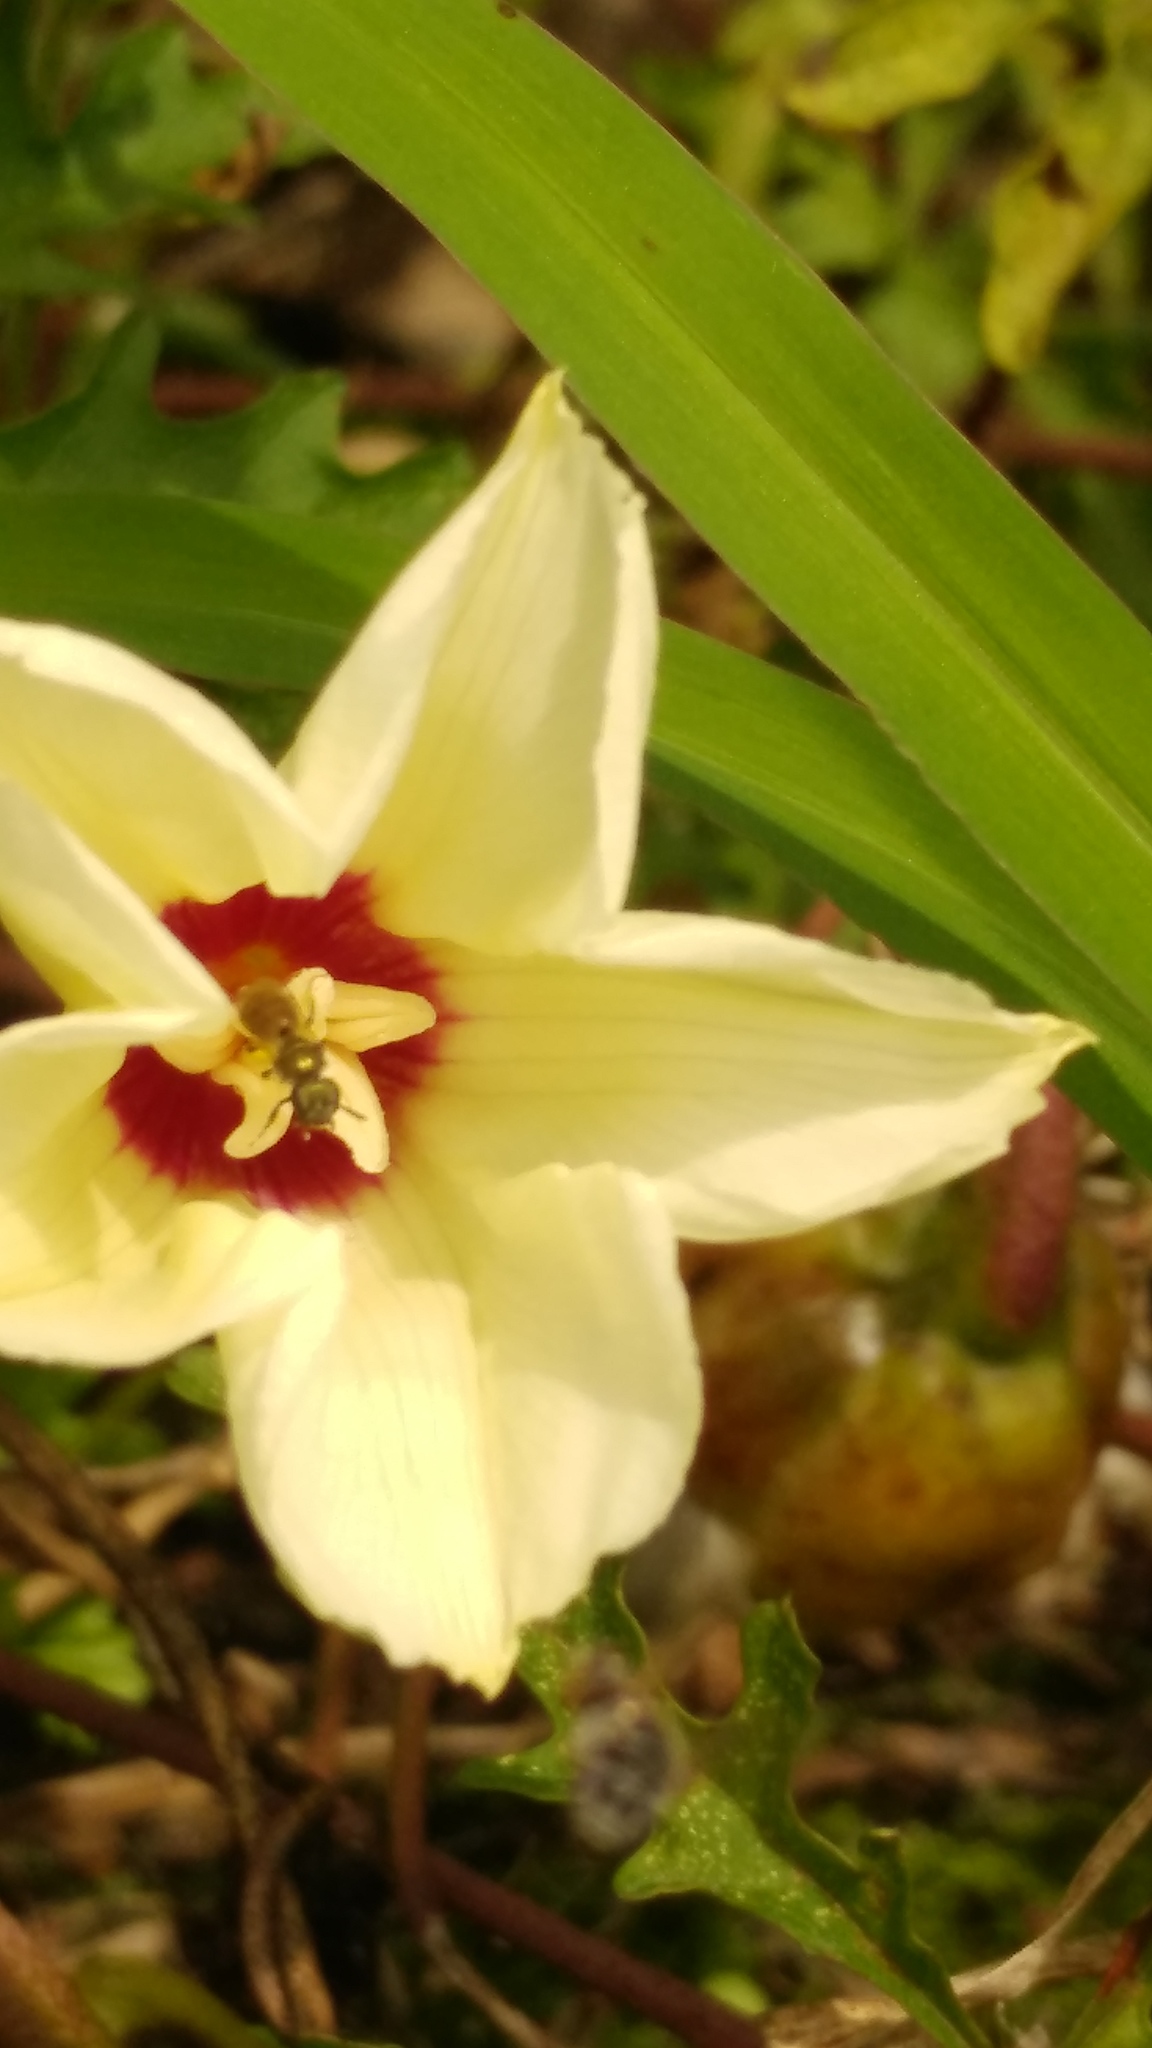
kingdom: Animalia
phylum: Arthropoda
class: Insecta
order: Hymenoptera
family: Halictidae
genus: Augochlora
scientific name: Augochlora aurifera
